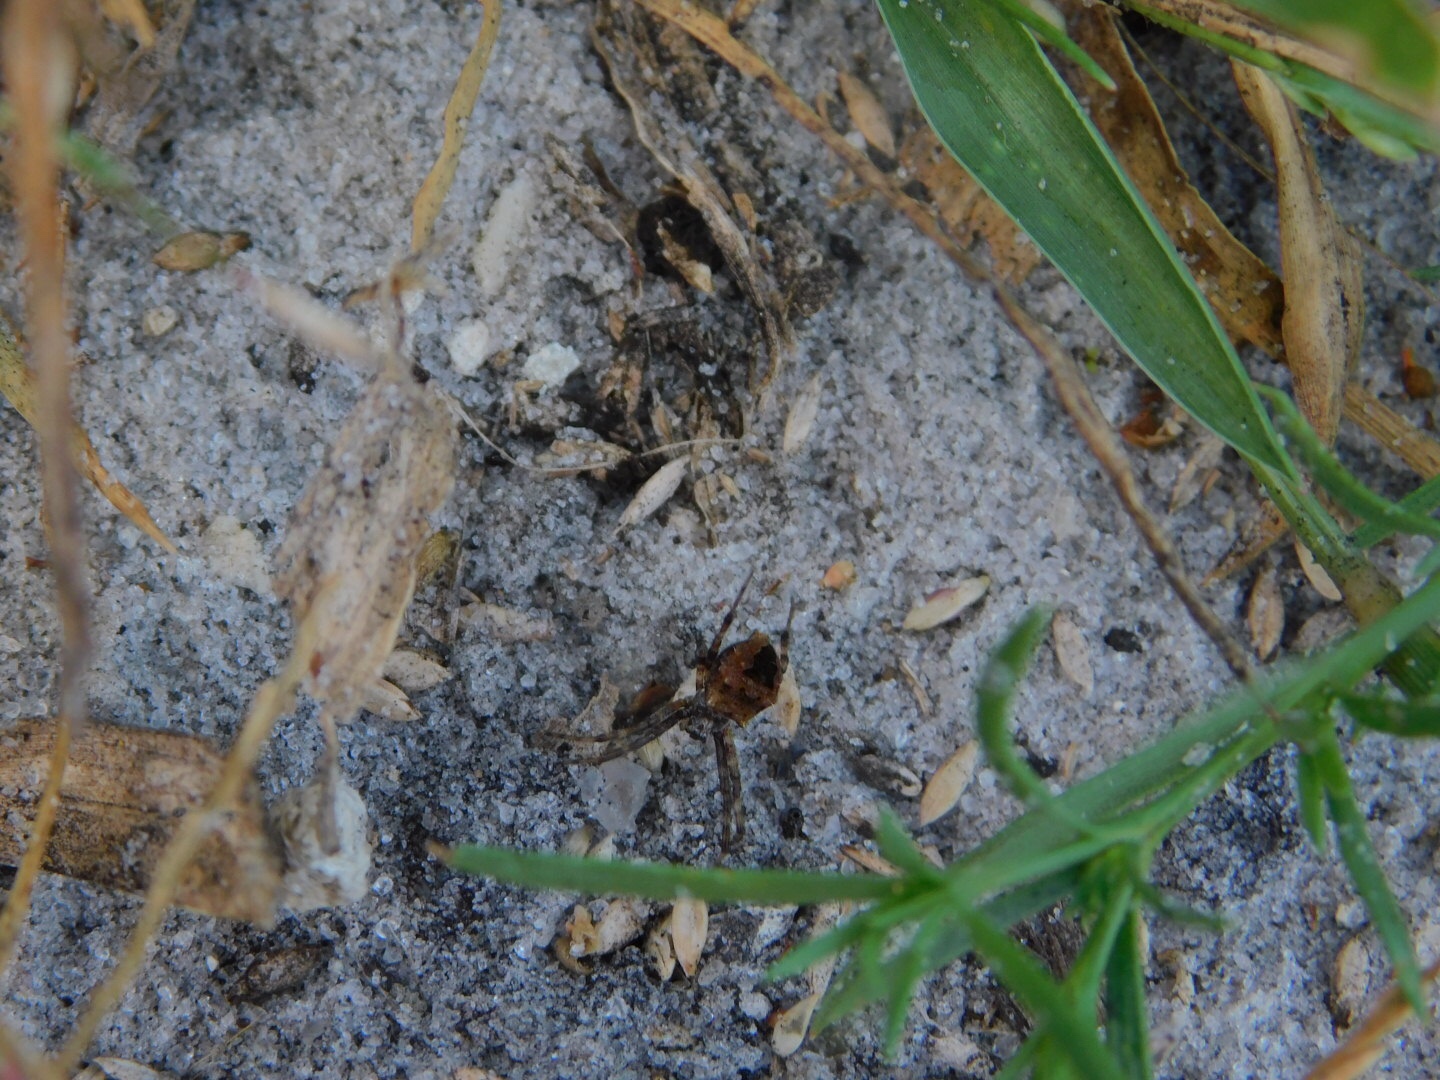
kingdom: Animalia
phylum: Arthropoda
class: Arachnida
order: Araneae
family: Araneidae
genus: Gea
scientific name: Gea heptagon
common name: Orb weavers
